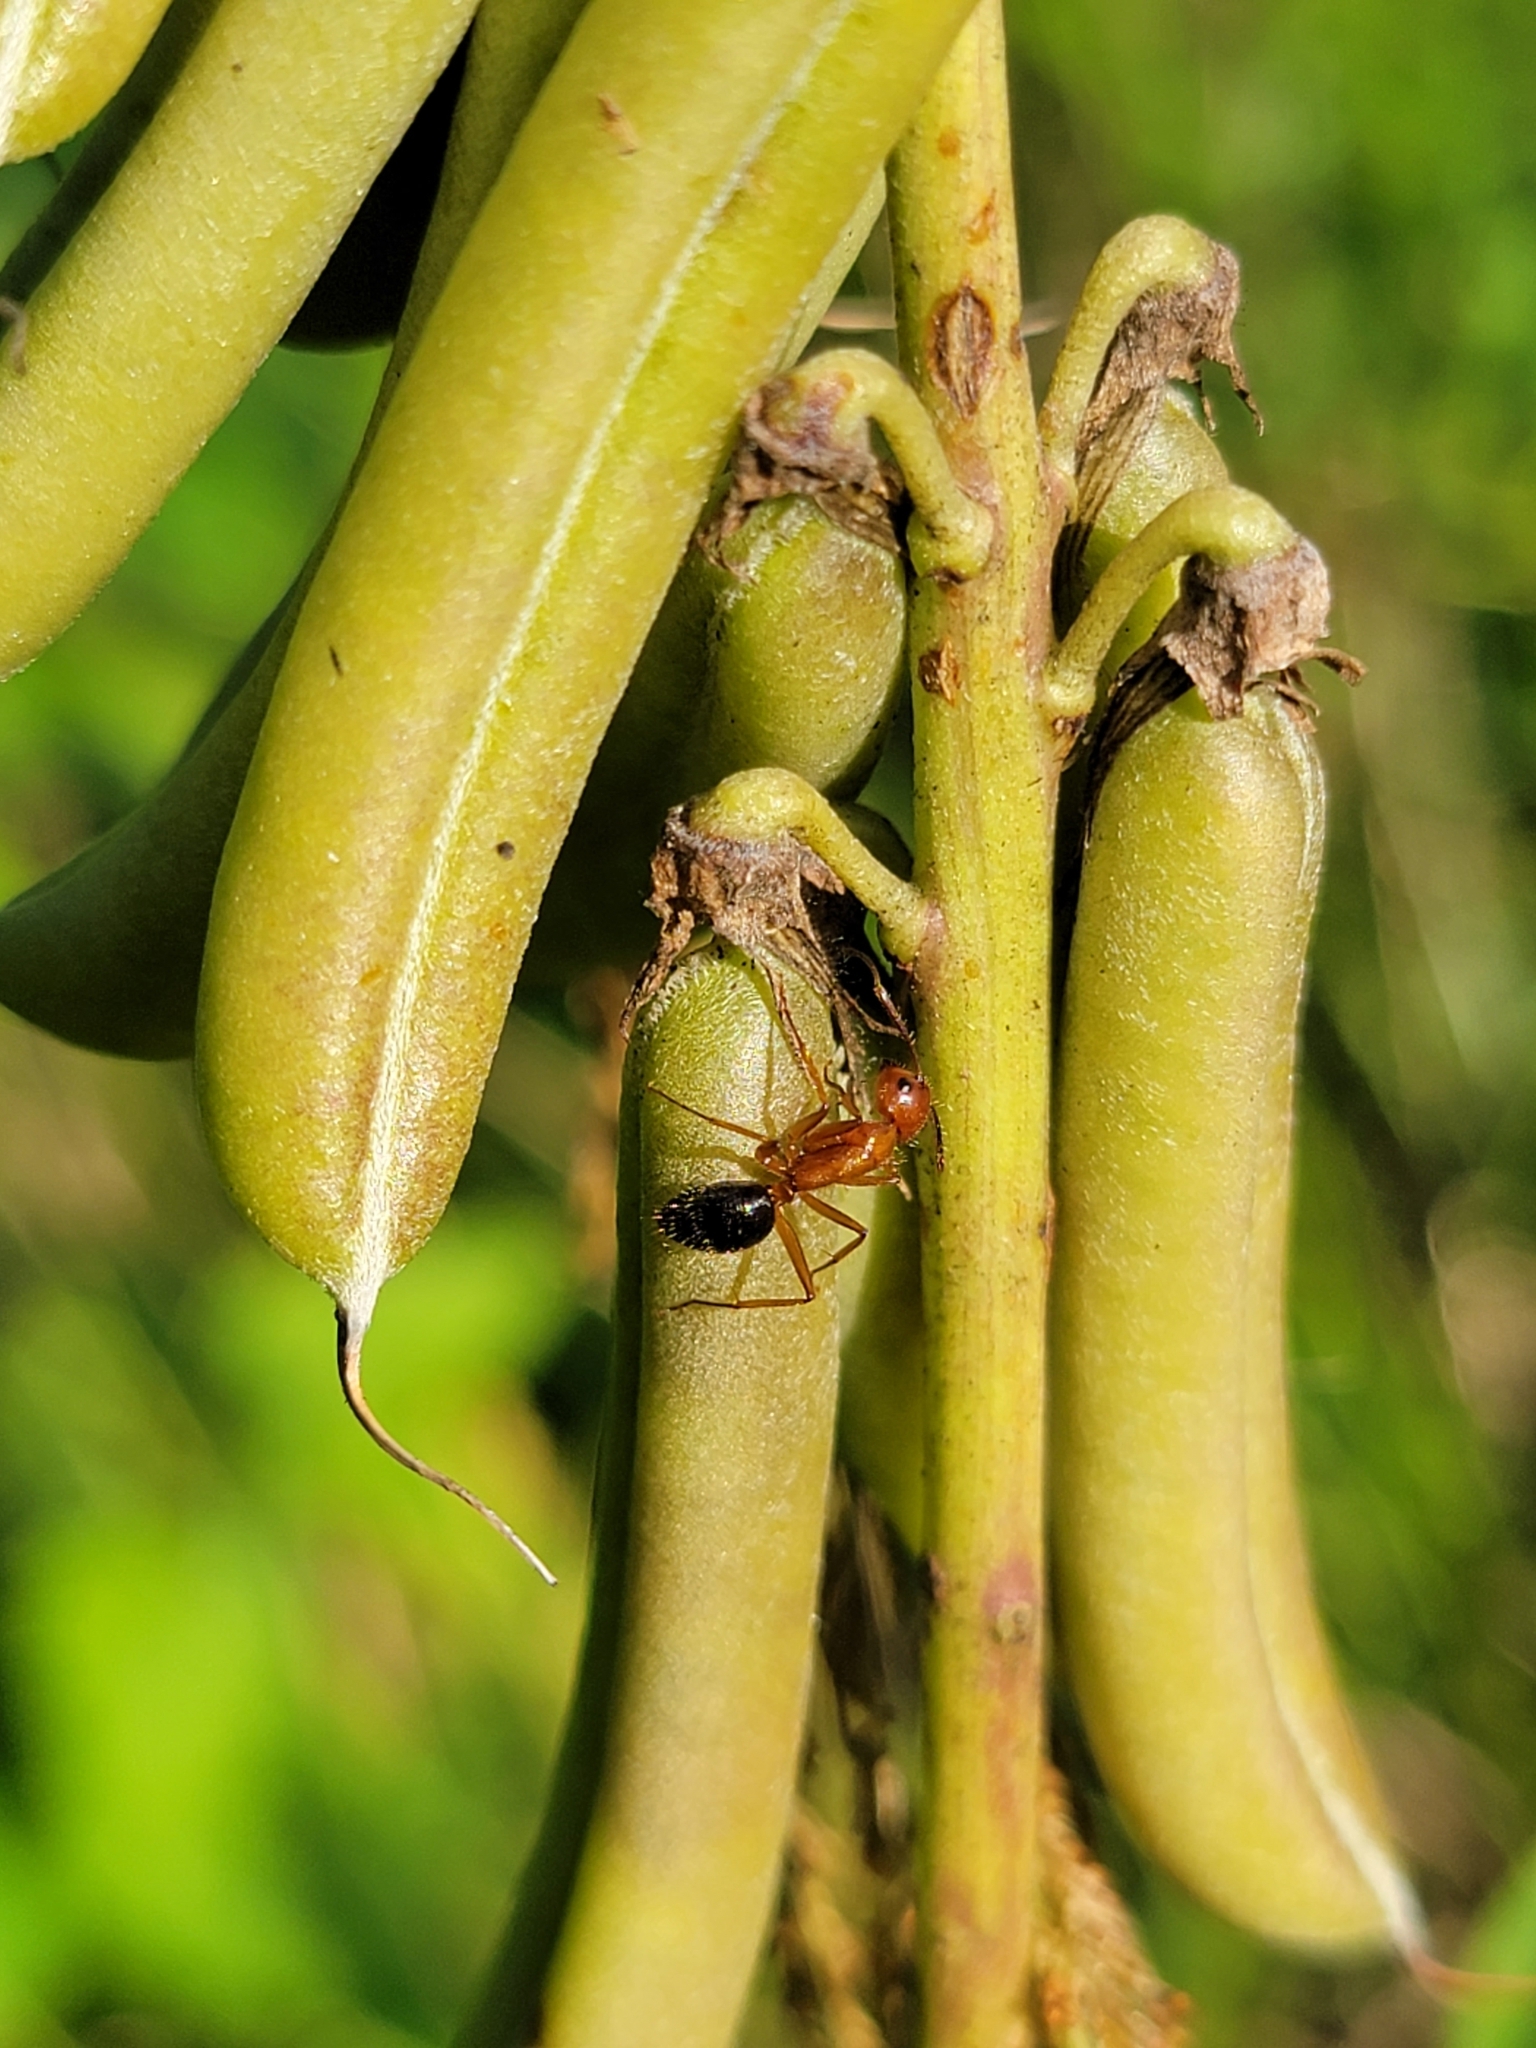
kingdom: Animalia
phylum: Arthropoda
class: Insecta
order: Hymenoptera
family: Formicidae
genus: Camponotus
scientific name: Camponotus floridanus
